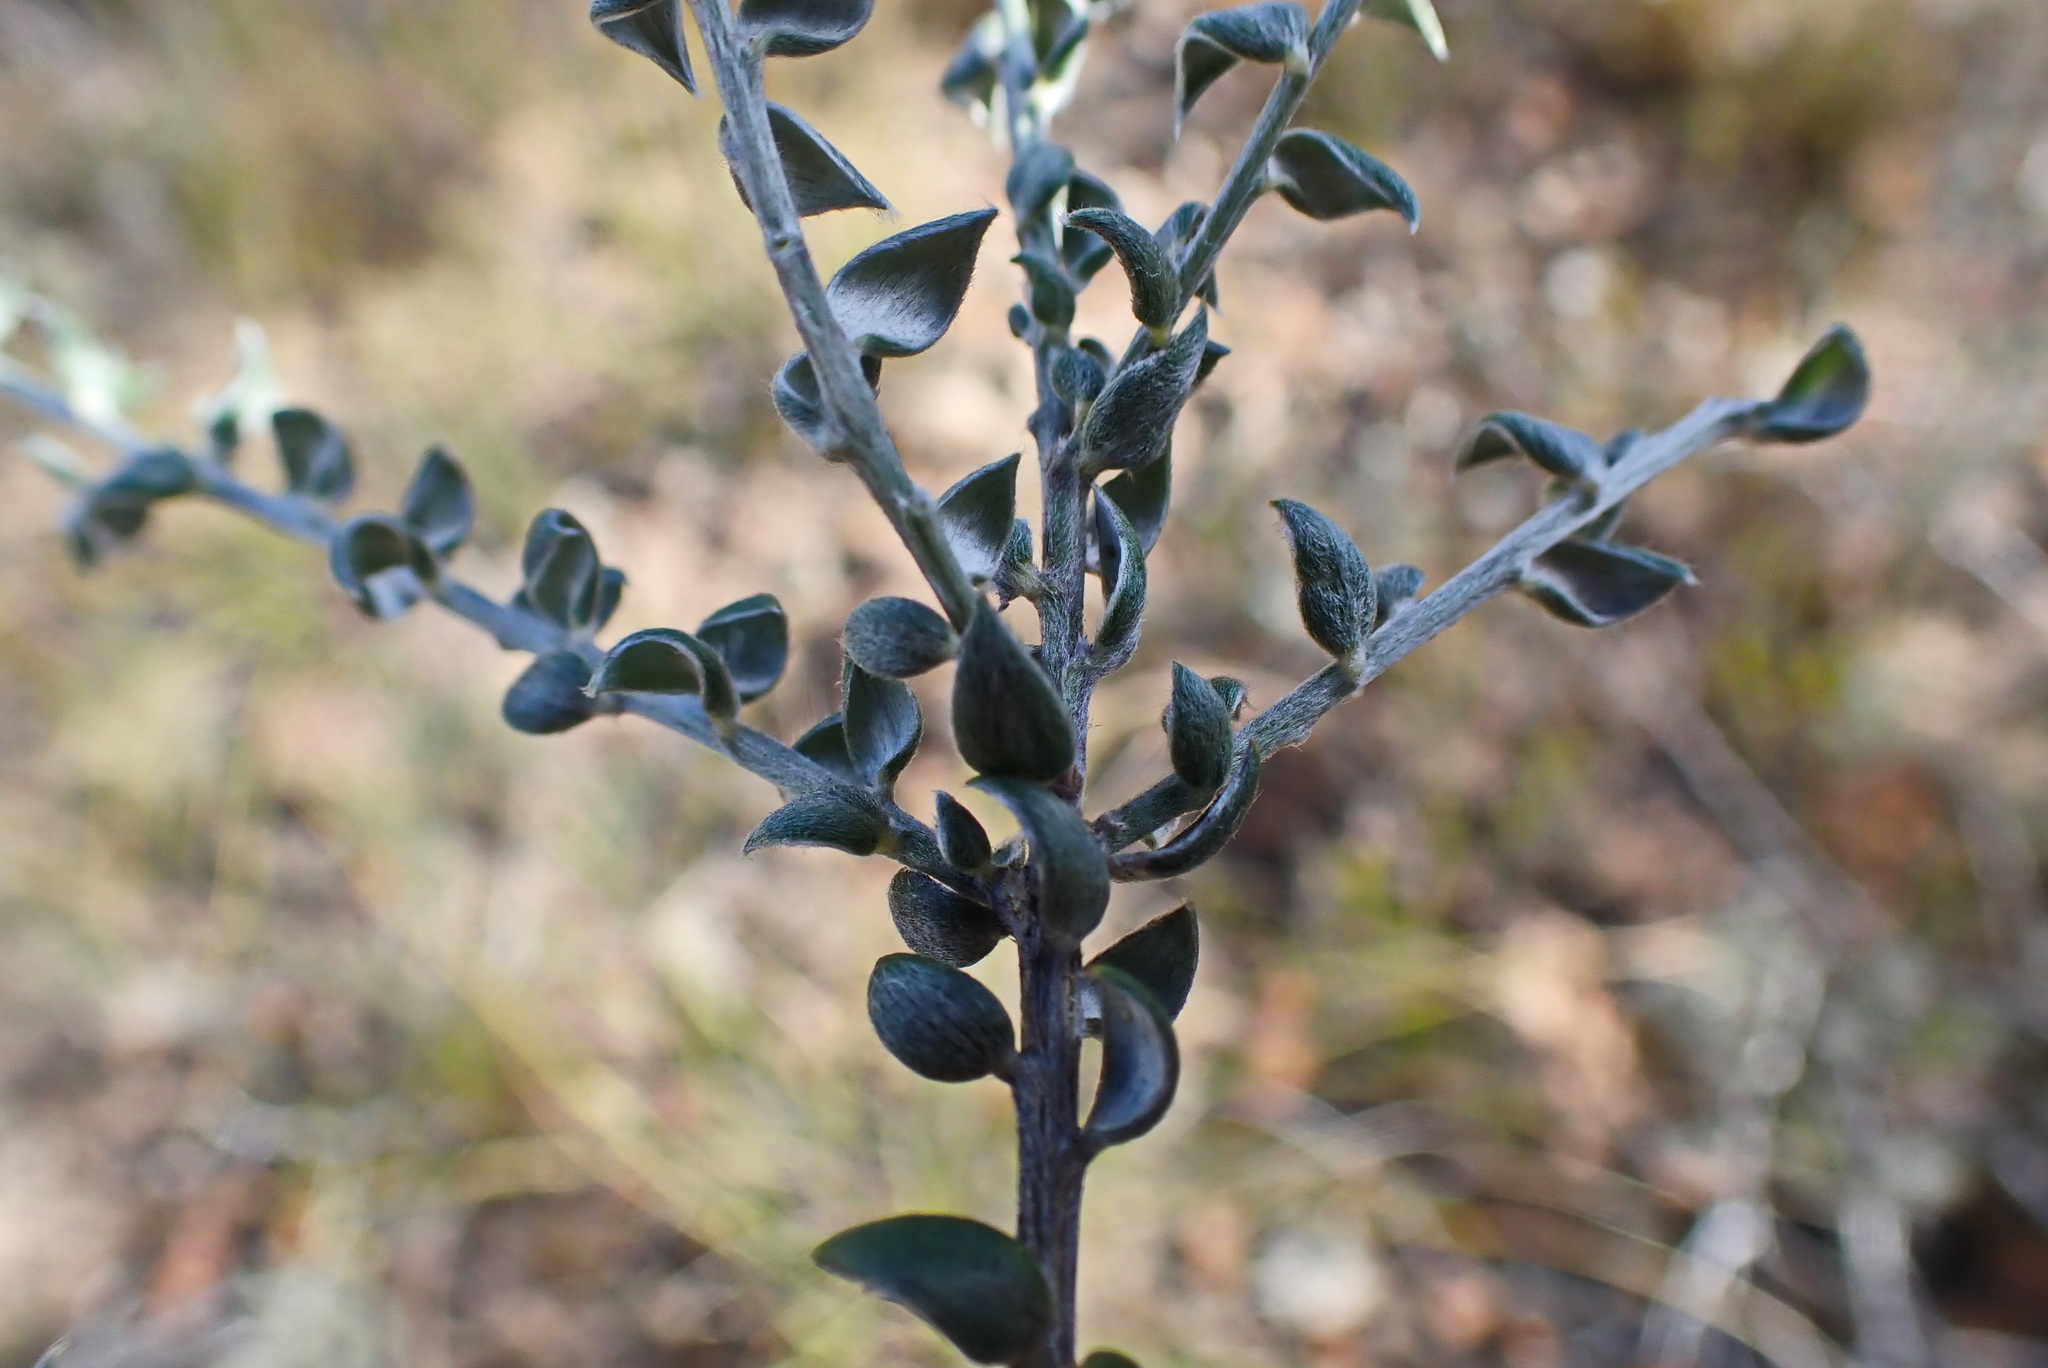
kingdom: Plantae
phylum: Tracheophyta
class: Magnoliopsida
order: Fabales
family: Fabaceae
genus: Podalyria
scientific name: Podalyria burchellii
